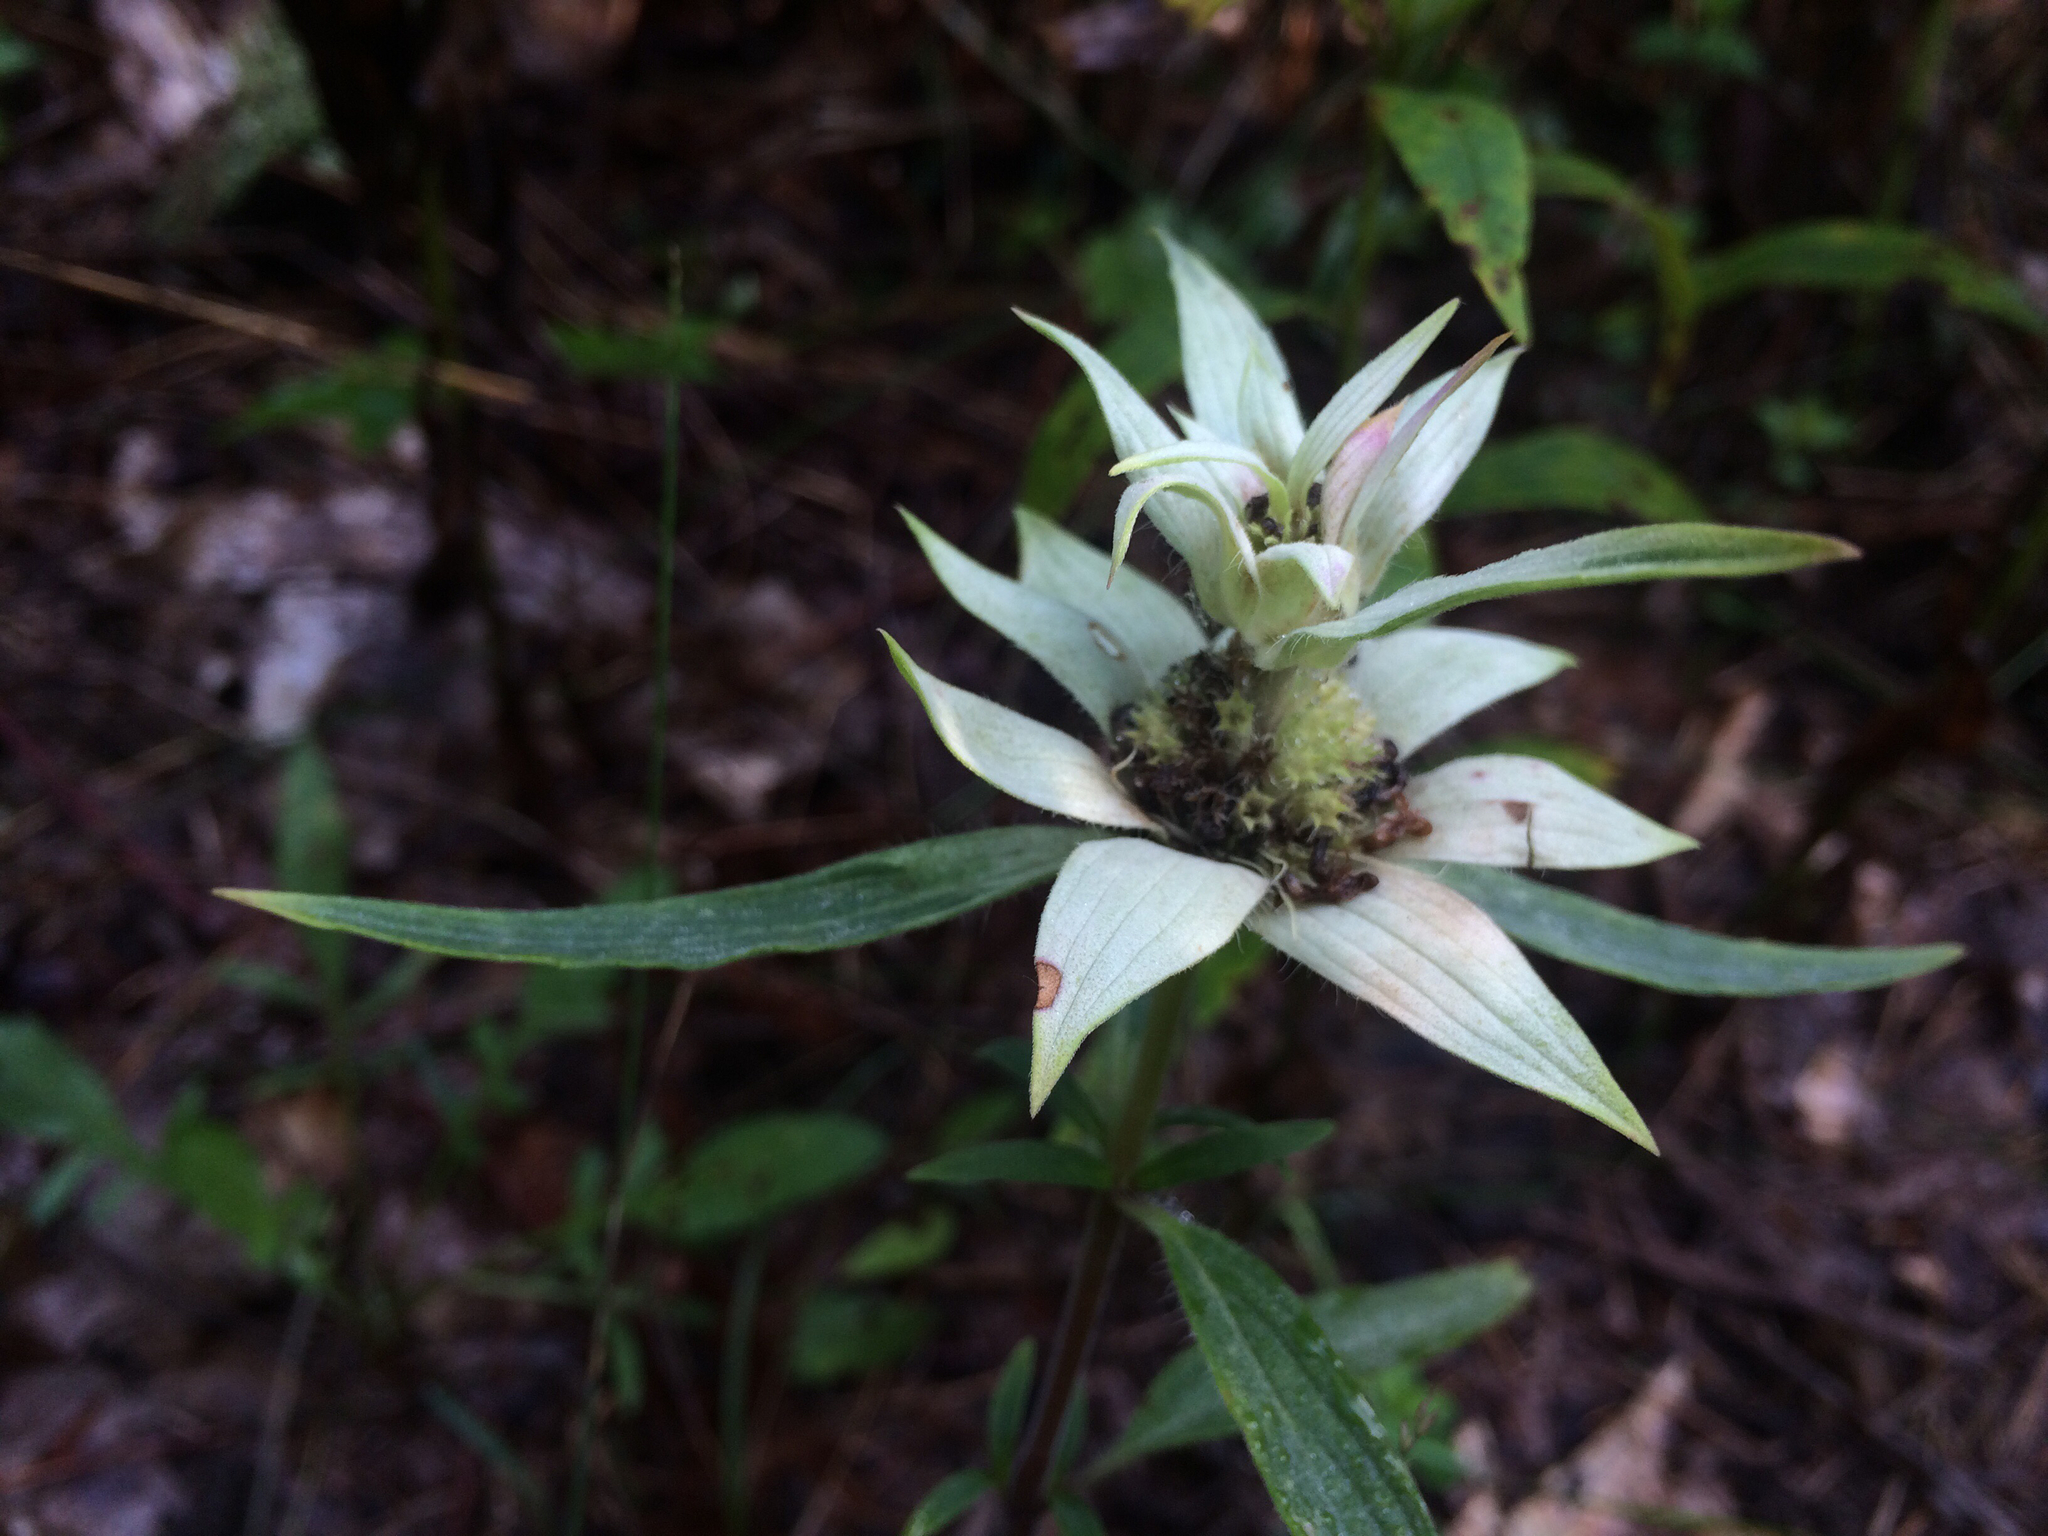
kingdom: Plantae
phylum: Tracheophyta
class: Magnoliopsida
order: Lamiales
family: Lamiaceae
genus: Monarda
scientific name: Monarda punctata
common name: Dotted monarda
